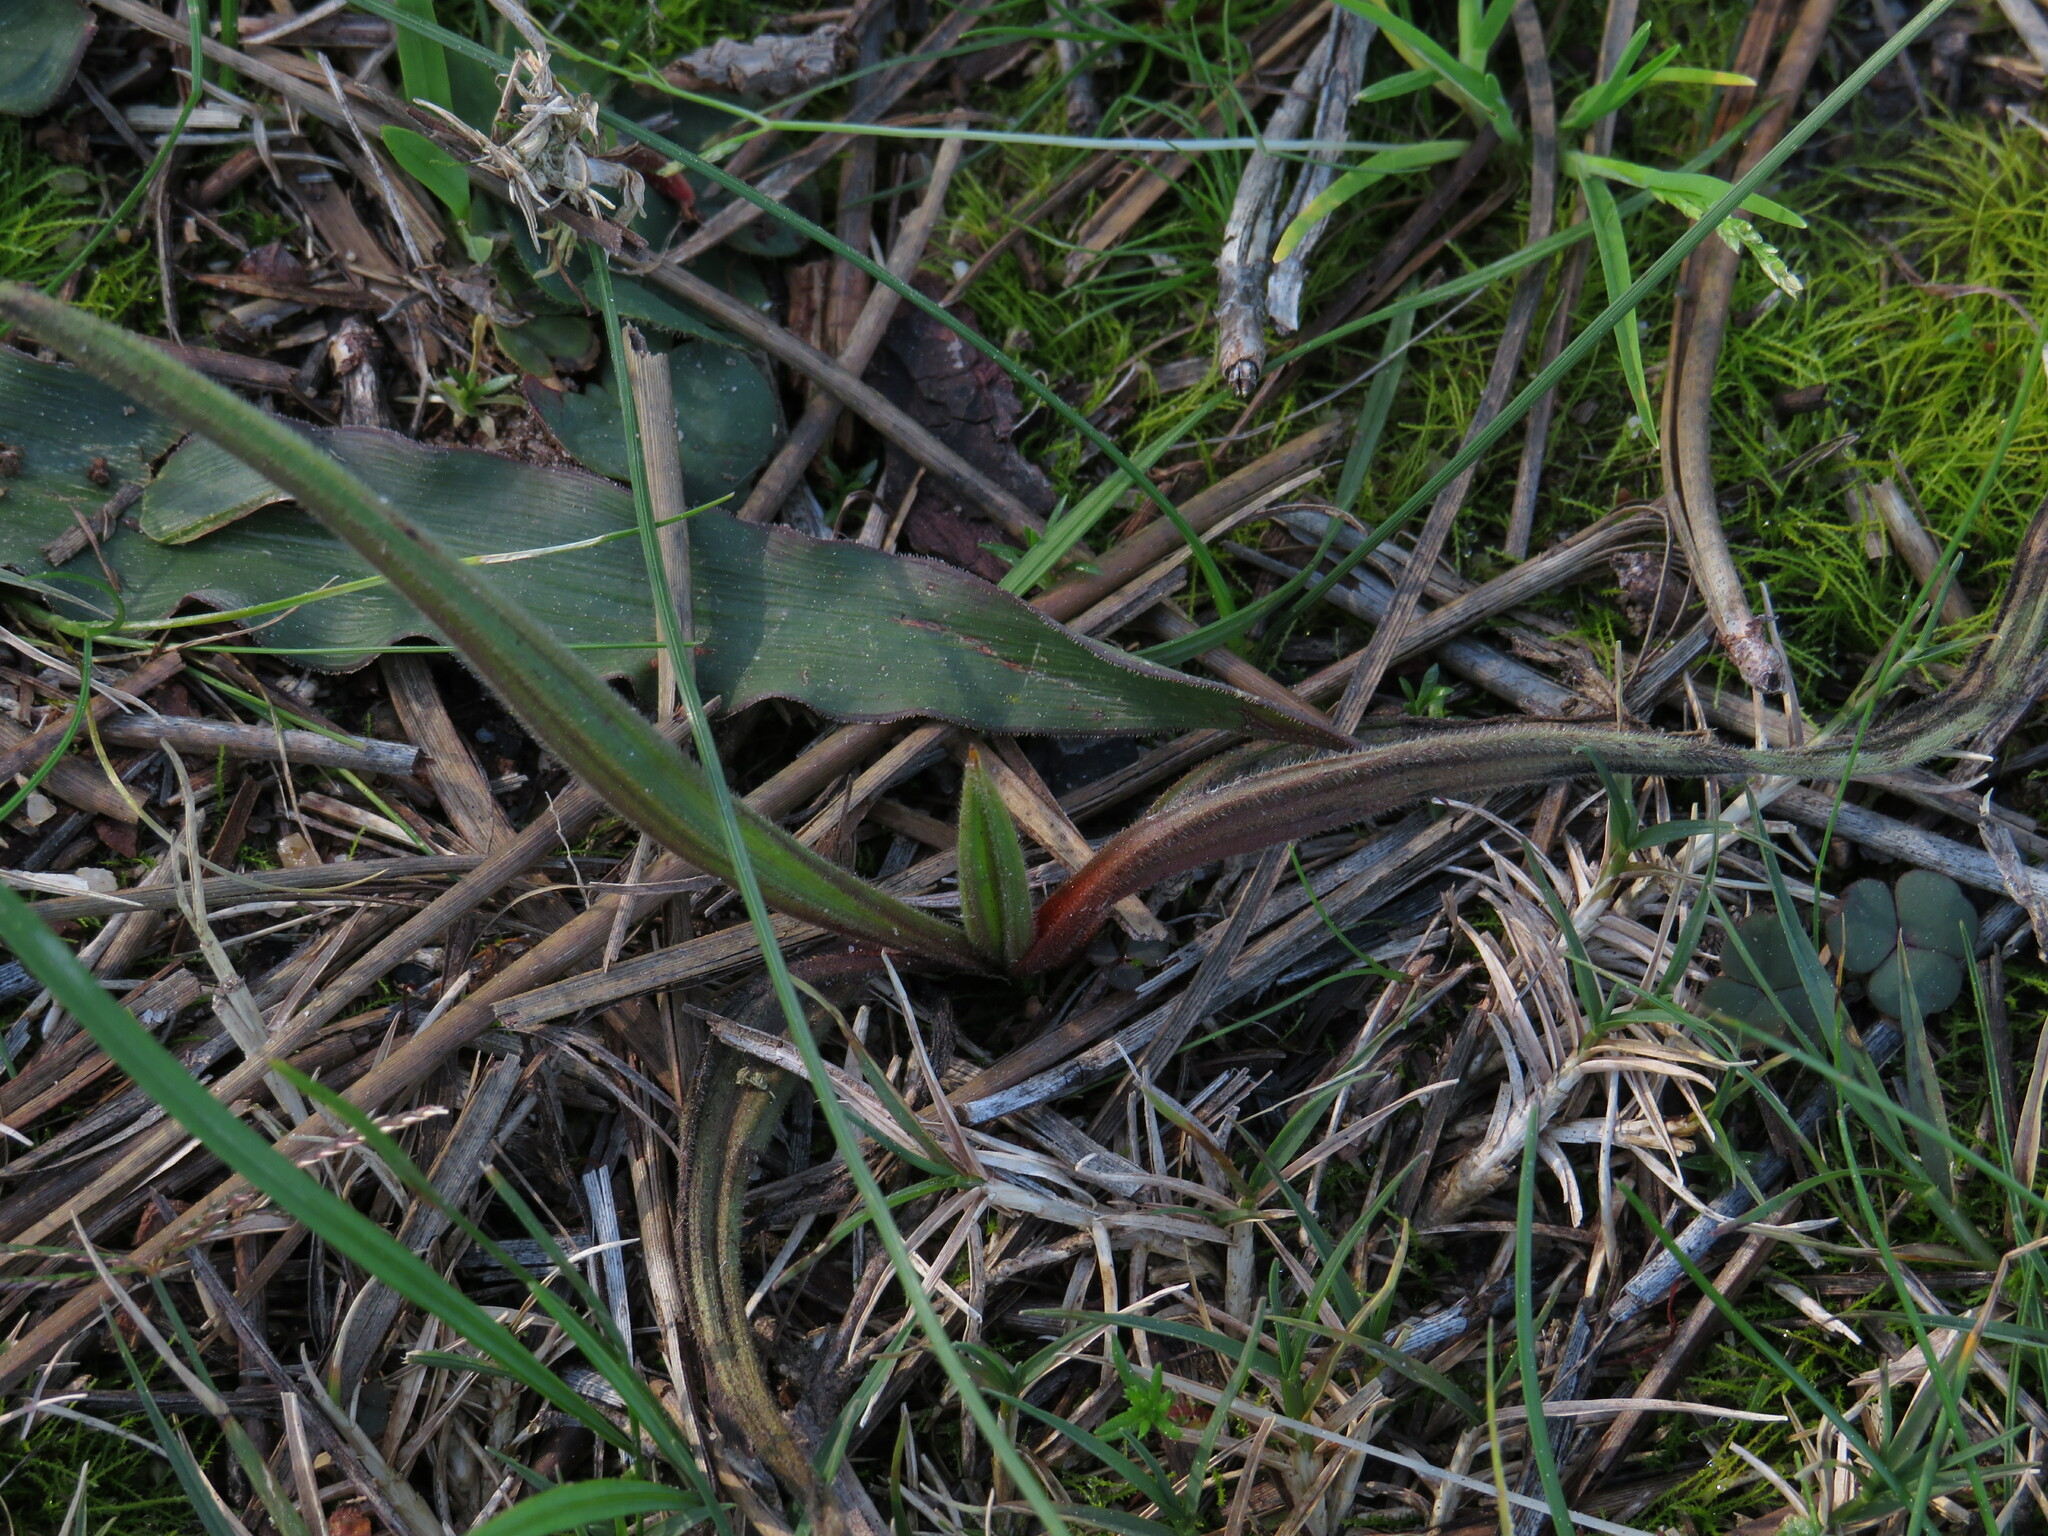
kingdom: Plantae
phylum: Tracheophyta
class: Liliopsida
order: Commelinales
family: Haemodoraceae
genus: Wachendorfia
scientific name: Wachendorfia multiflora
